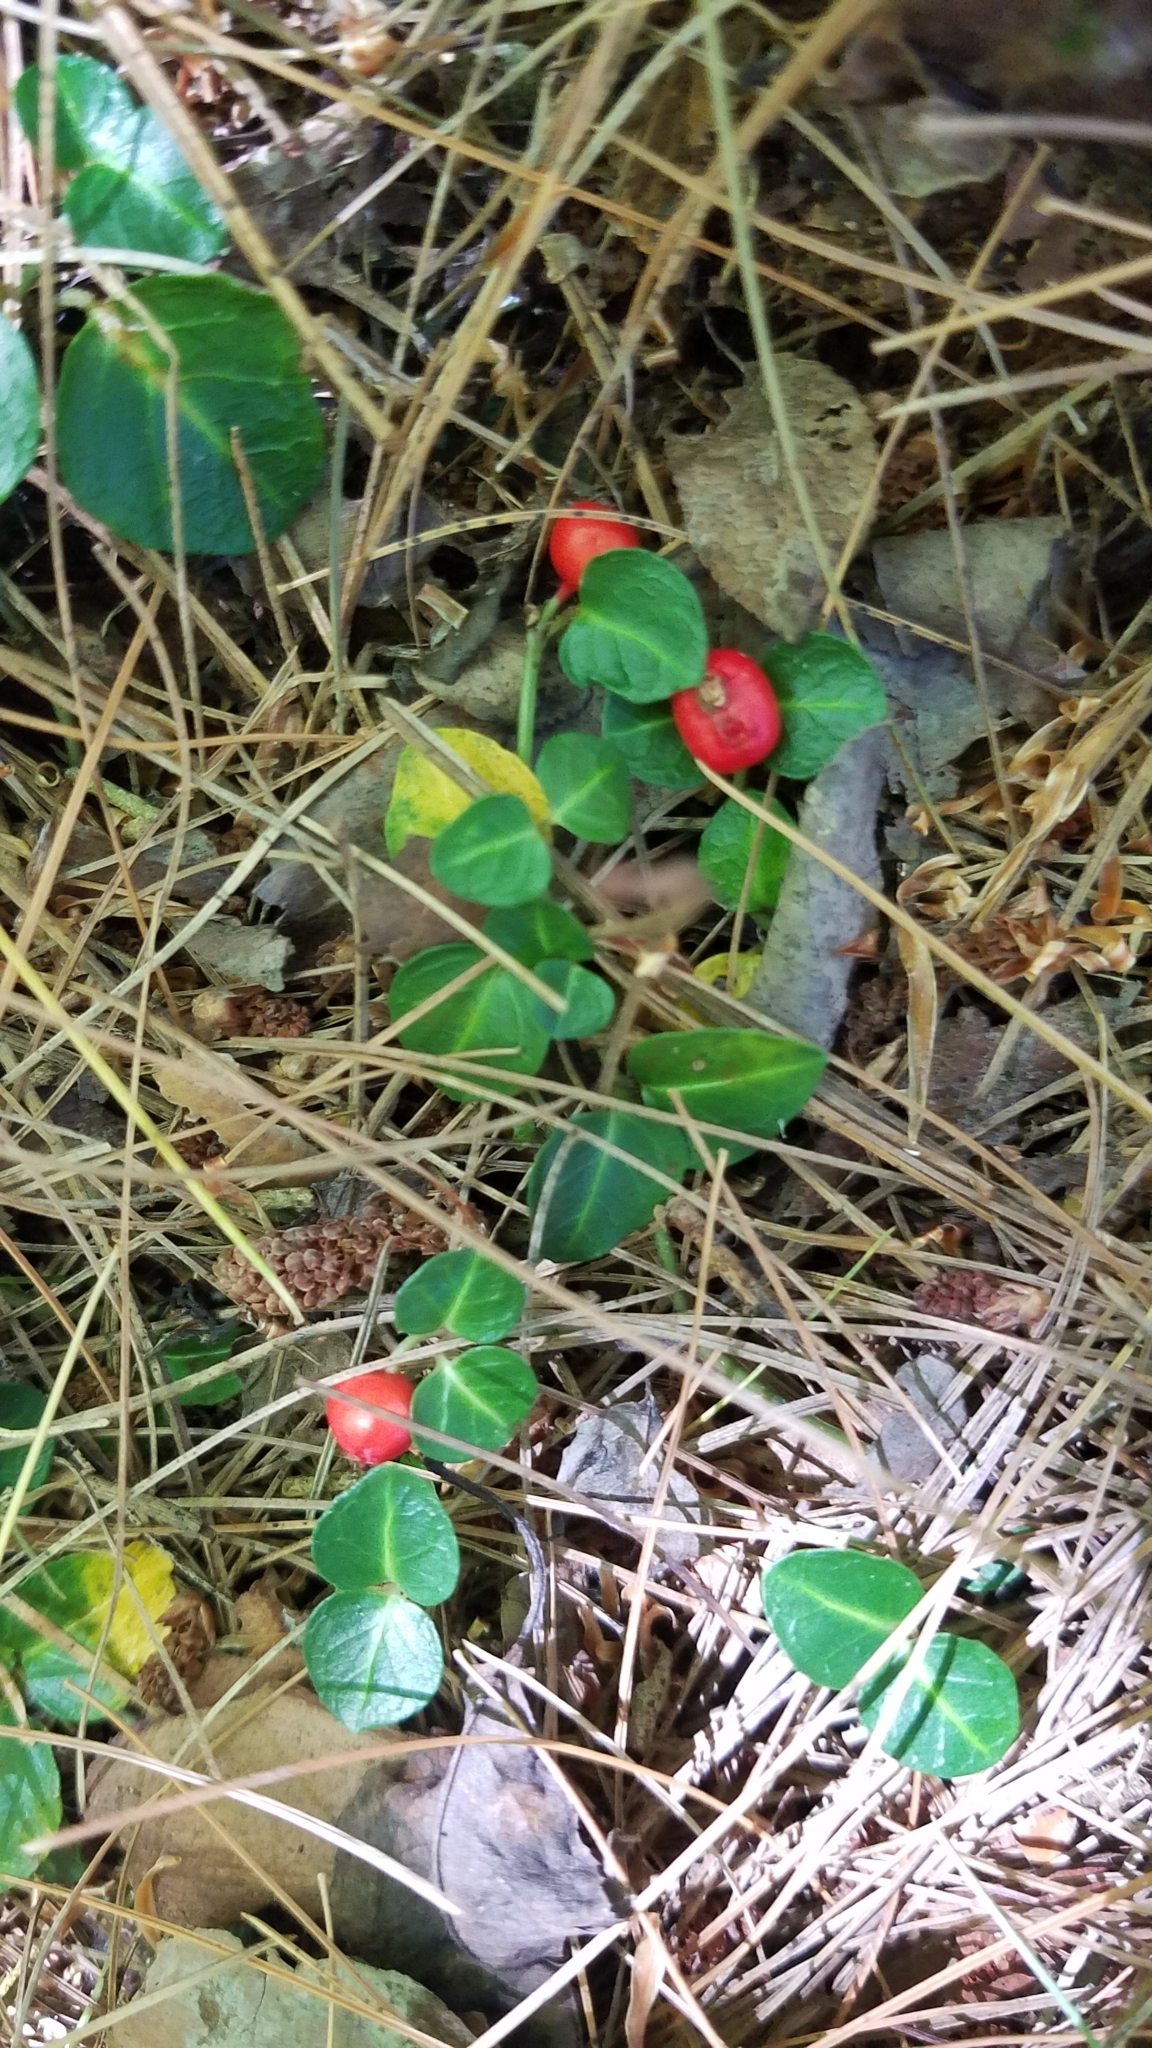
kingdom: Plantae
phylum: Tracheophyta
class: Magnoliopsida
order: Gentianales
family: Rubiaceae
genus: Mitchella
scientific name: Mitchella repens
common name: Partridge-berry
